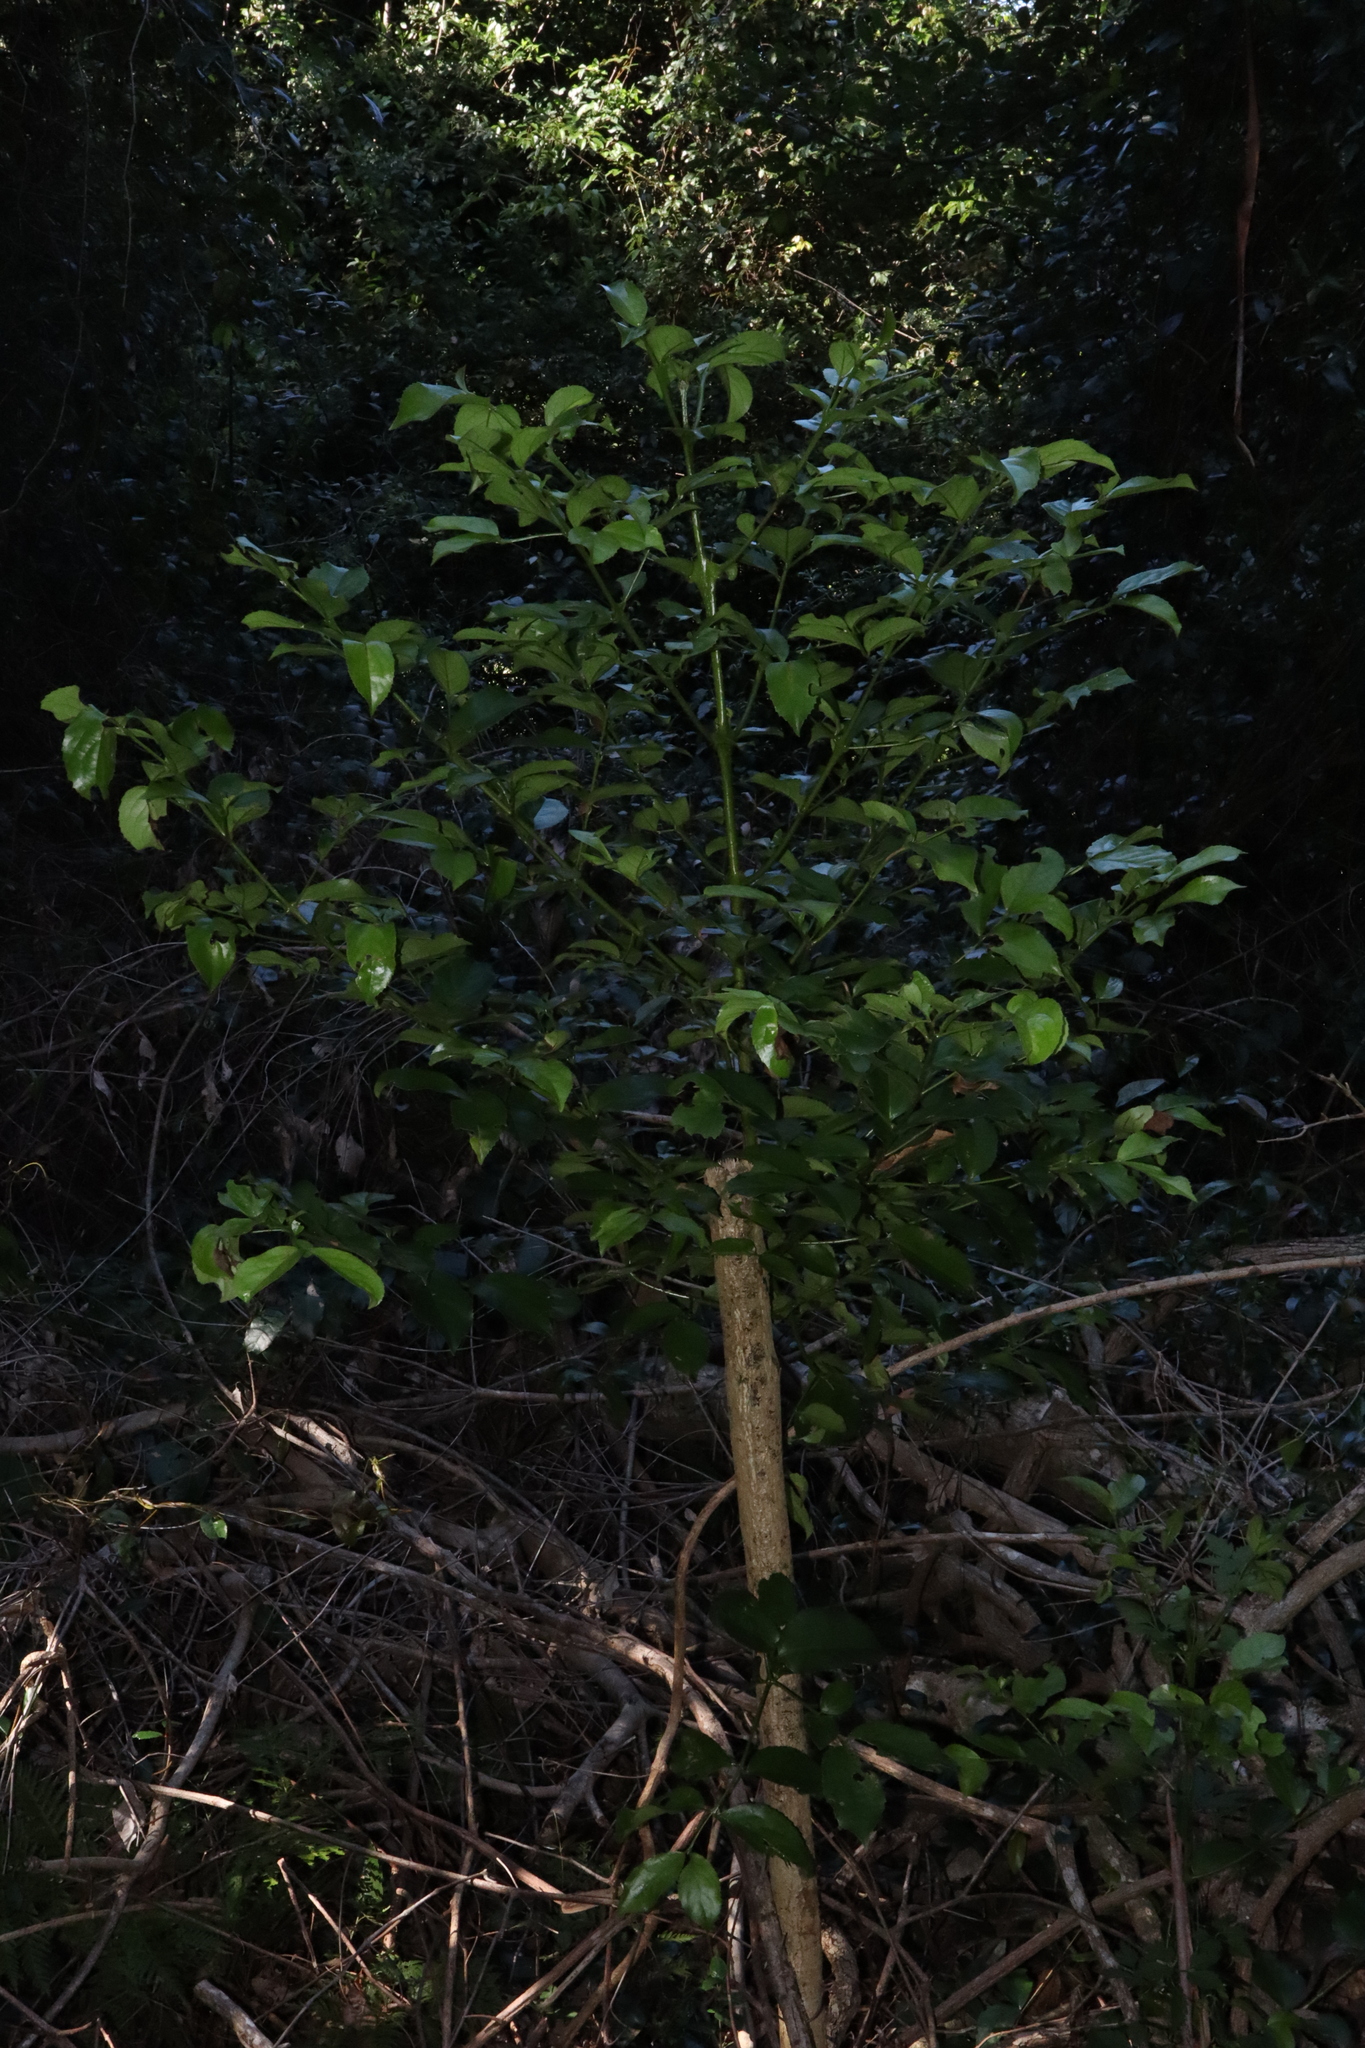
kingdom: Plantae
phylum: Tracheophyta
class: Magnoliopsida
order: Laurales
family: Atherospermataceae
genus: Daphnandra
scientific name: Daphnandra micrantha
